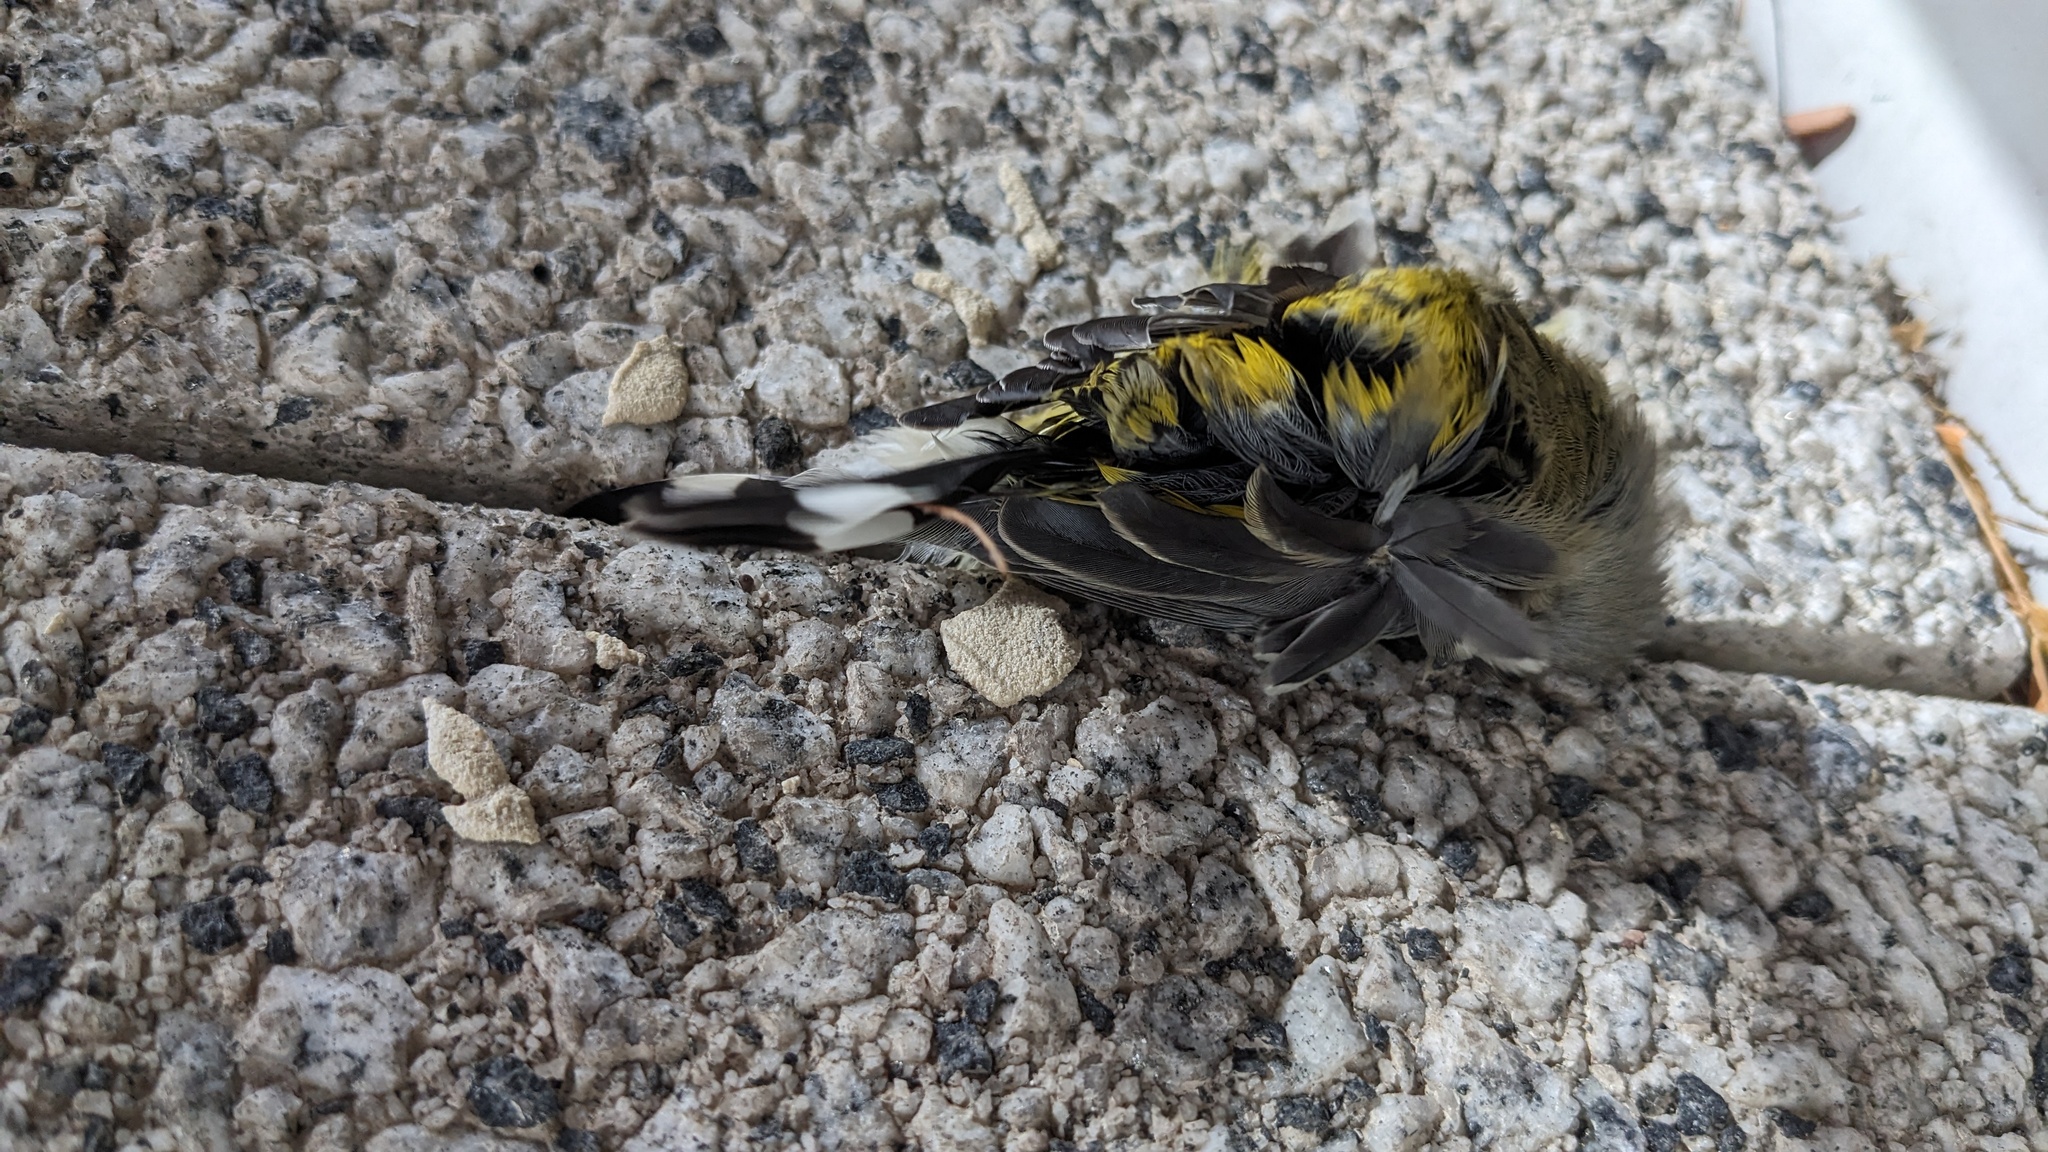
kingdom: Animalia
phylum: Chordata
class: Aves
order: Passeriformes
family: Parulidae
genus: Setophaga
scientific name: Setophaga magnolia
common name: Magnolia warbler
